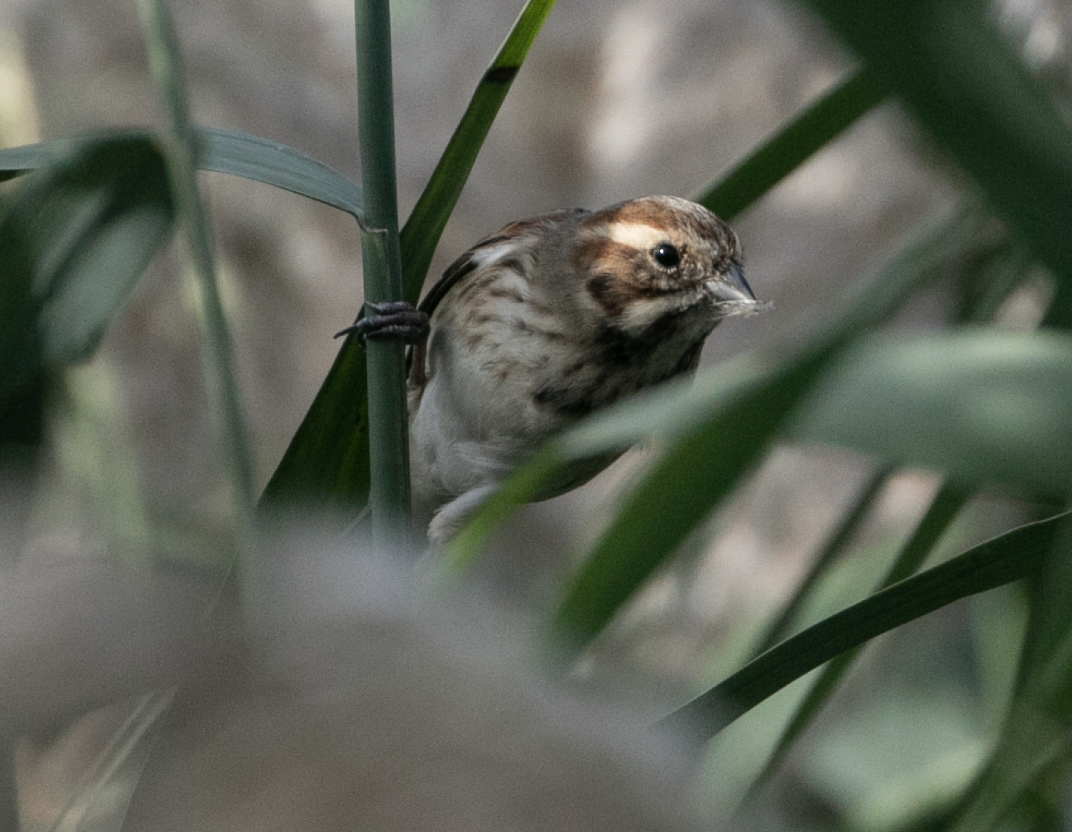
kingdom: Animalia
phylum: Chordata
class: Aves
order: Passeriformes
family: Emberizidae
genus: Emberiza
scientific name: Emberiza schoeniclus
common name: Reed bunting
